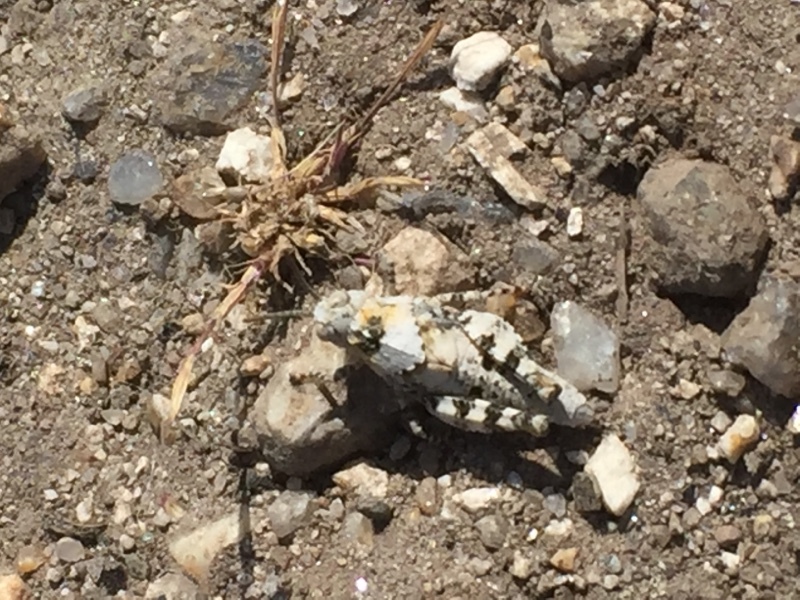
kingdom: Animalia
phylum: Arthropoda
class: Insecta
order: Orthoptera
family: Acrididae
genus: Oedipoda
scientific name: Oedipoda caerulescens
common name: Blue-winged grasshopper
